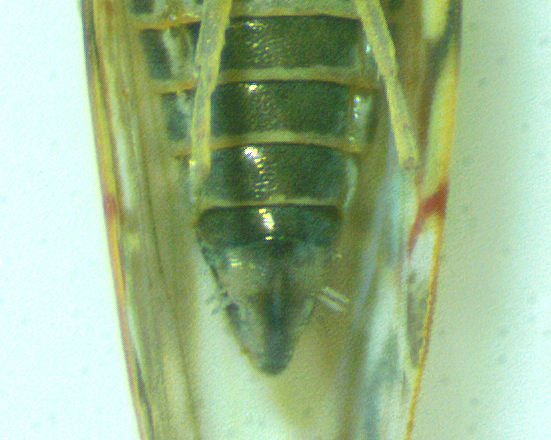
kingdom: Animalia
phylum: Arthropoda
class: Insecta
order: Hemiptera
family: Cicadellidae
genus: Erasmoneura
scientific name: Erasmoneura vulnerata
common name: The wounded leafhopper
